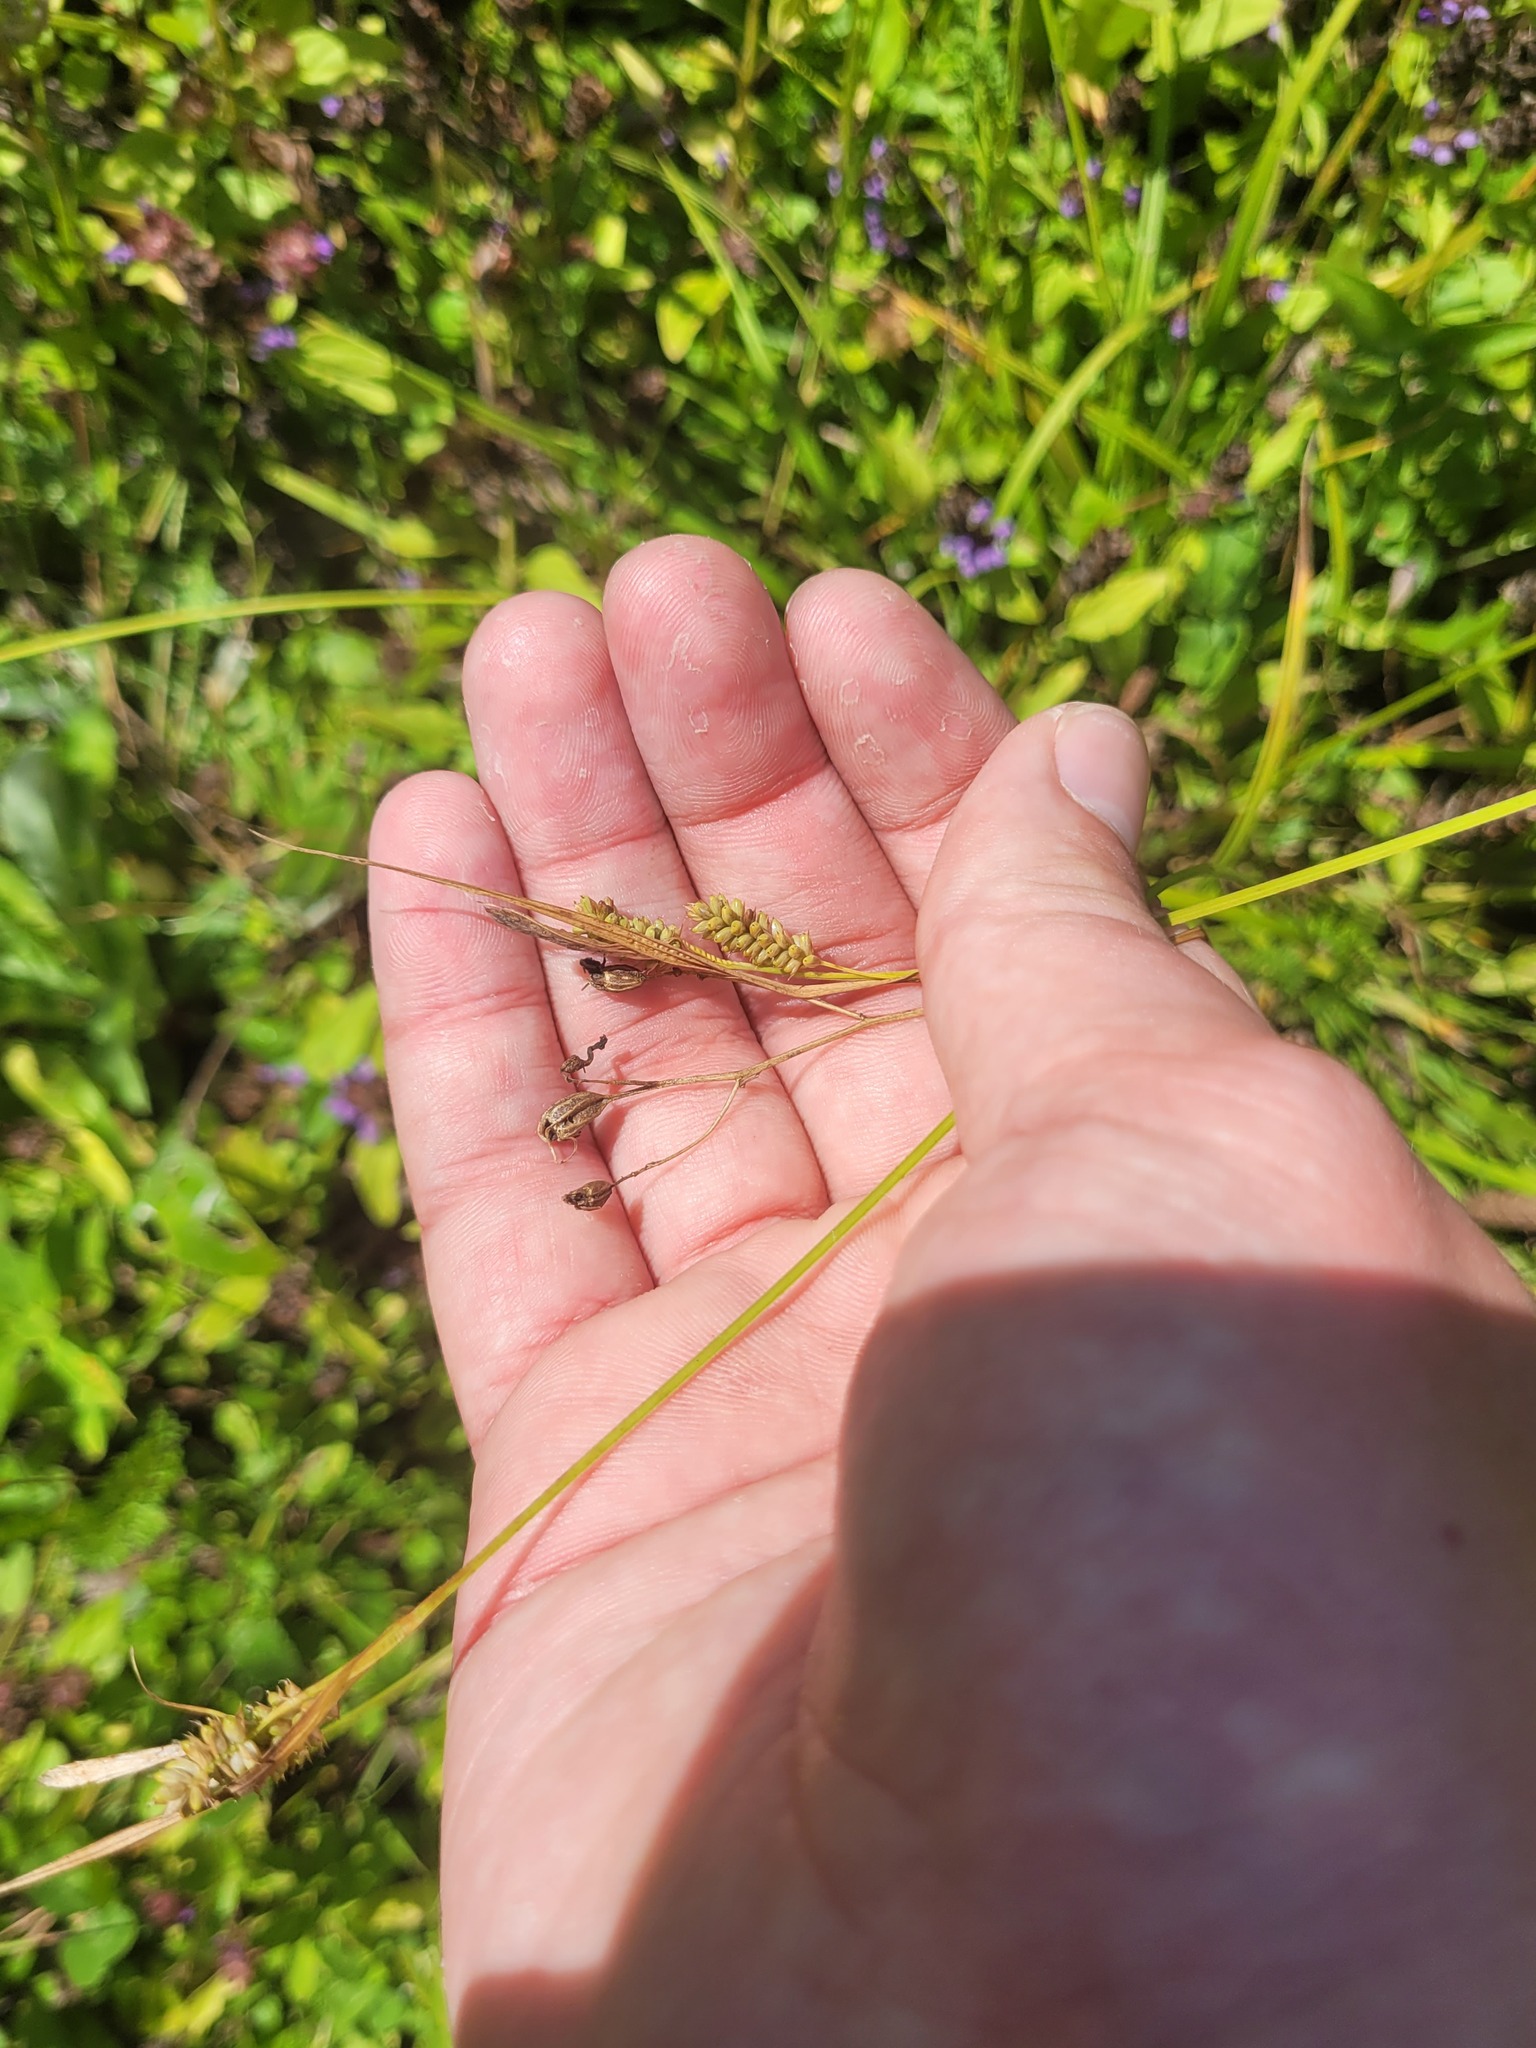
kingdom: Plantae
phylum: Tracheophyta
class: Liliopsida
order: Poales
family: Cyperaceae
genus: Carex
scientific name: Carex pallescens
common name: Pale sedge
